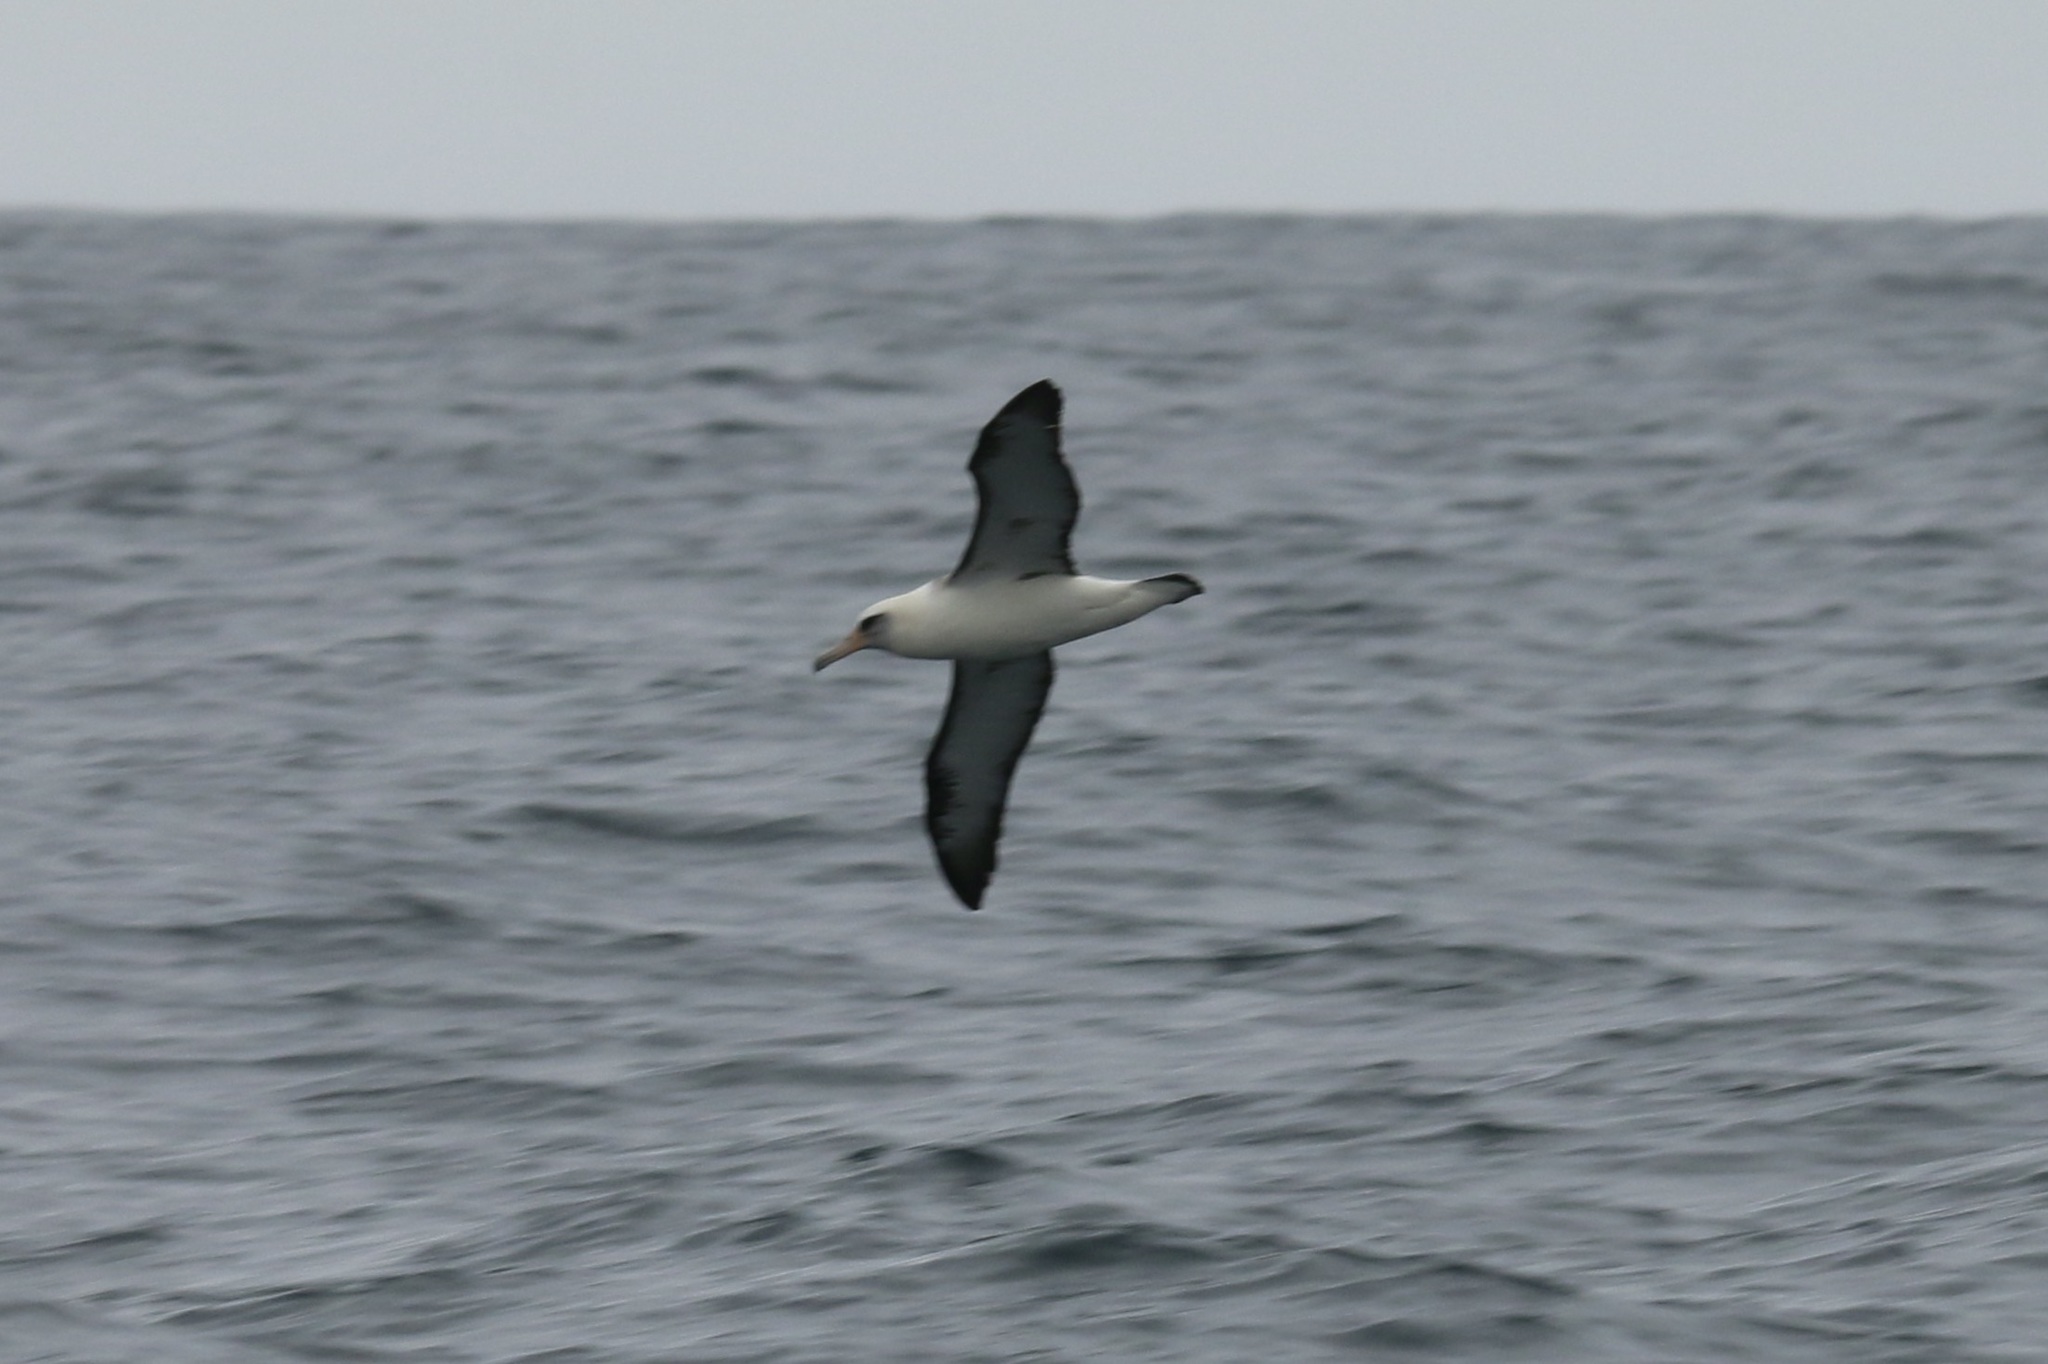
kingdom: Animalia
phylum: Chordata
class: Aves
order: Procellariiformes
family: Diomedeidae
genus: Phoebastria
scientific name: Phoebastria immutabilis
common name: Laysan albatross
